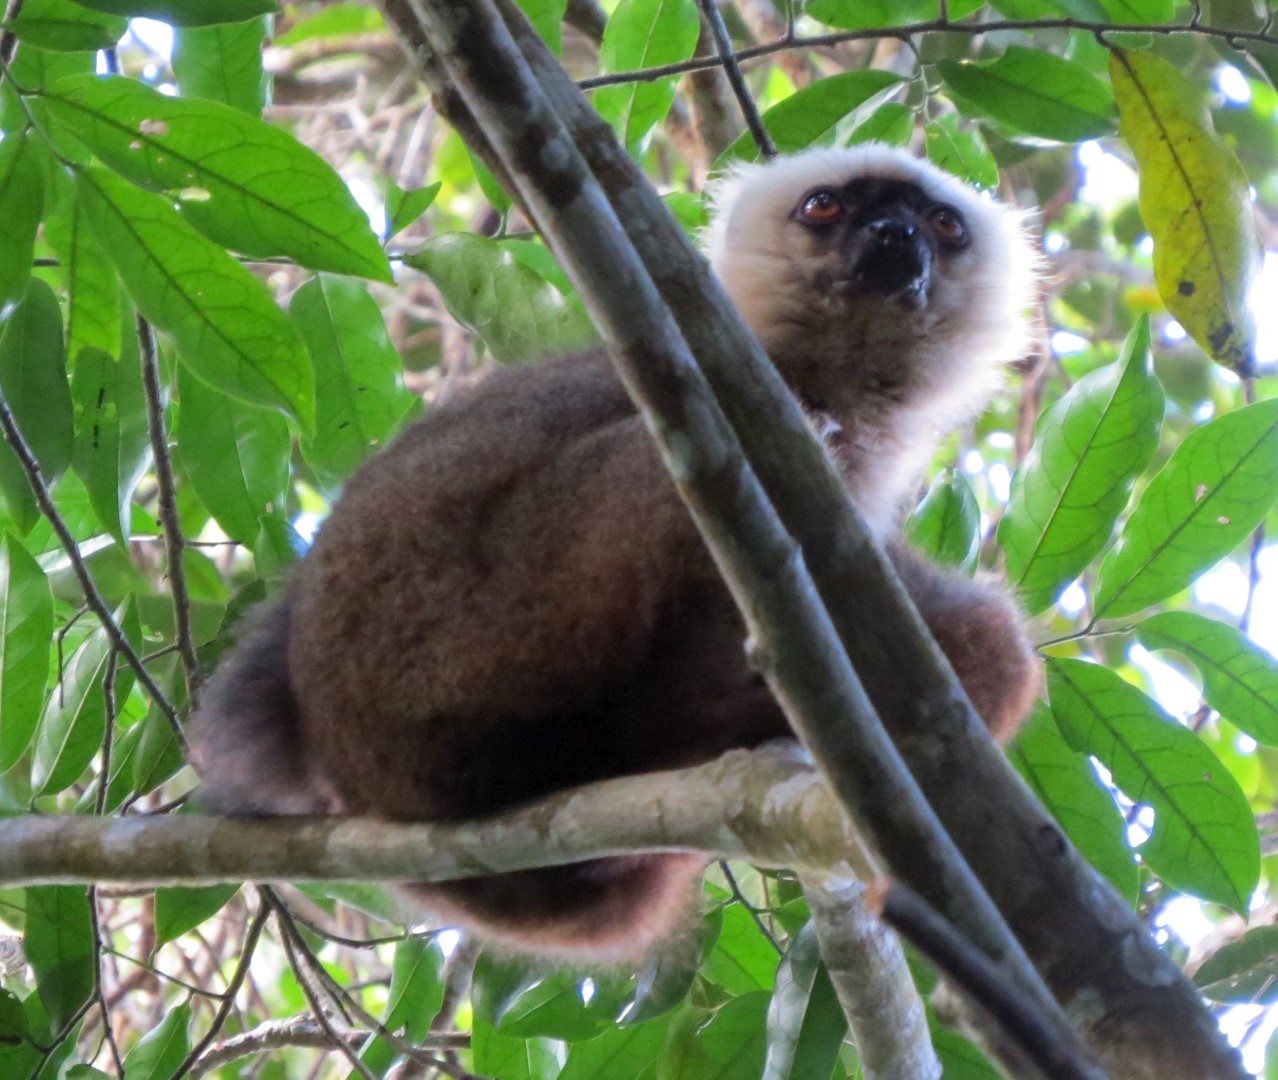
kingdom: Animalia
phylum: Chordata
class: Mammalia
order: Primates
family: Lemuridae
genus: Eulemur
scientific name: Eulemur albifrons
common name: White-headed lemur
